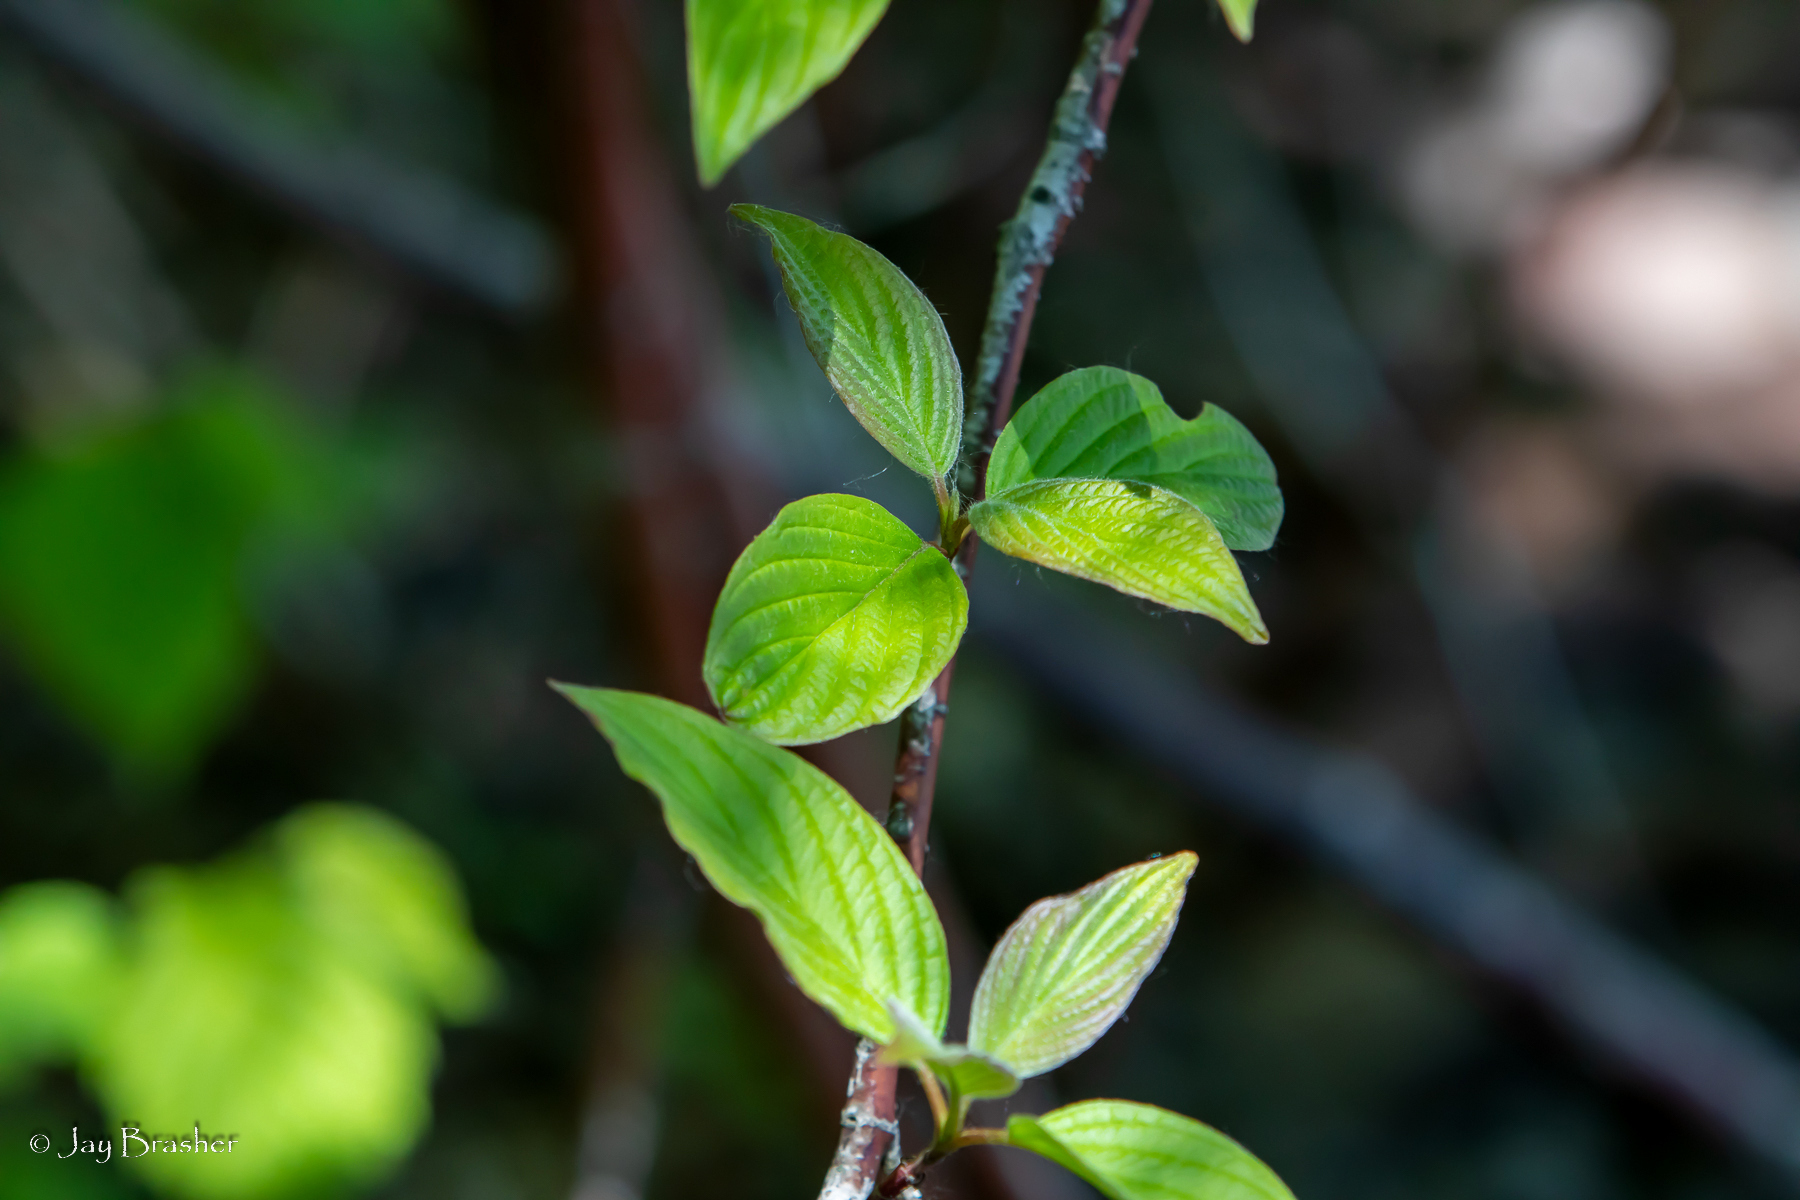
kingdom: Plantae
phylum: Tracheophyta
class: Magnoliopsida
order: Cornales
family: Cornaceae
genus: Cornus
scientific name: Cornus sericea
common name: Red-osier dogwood
